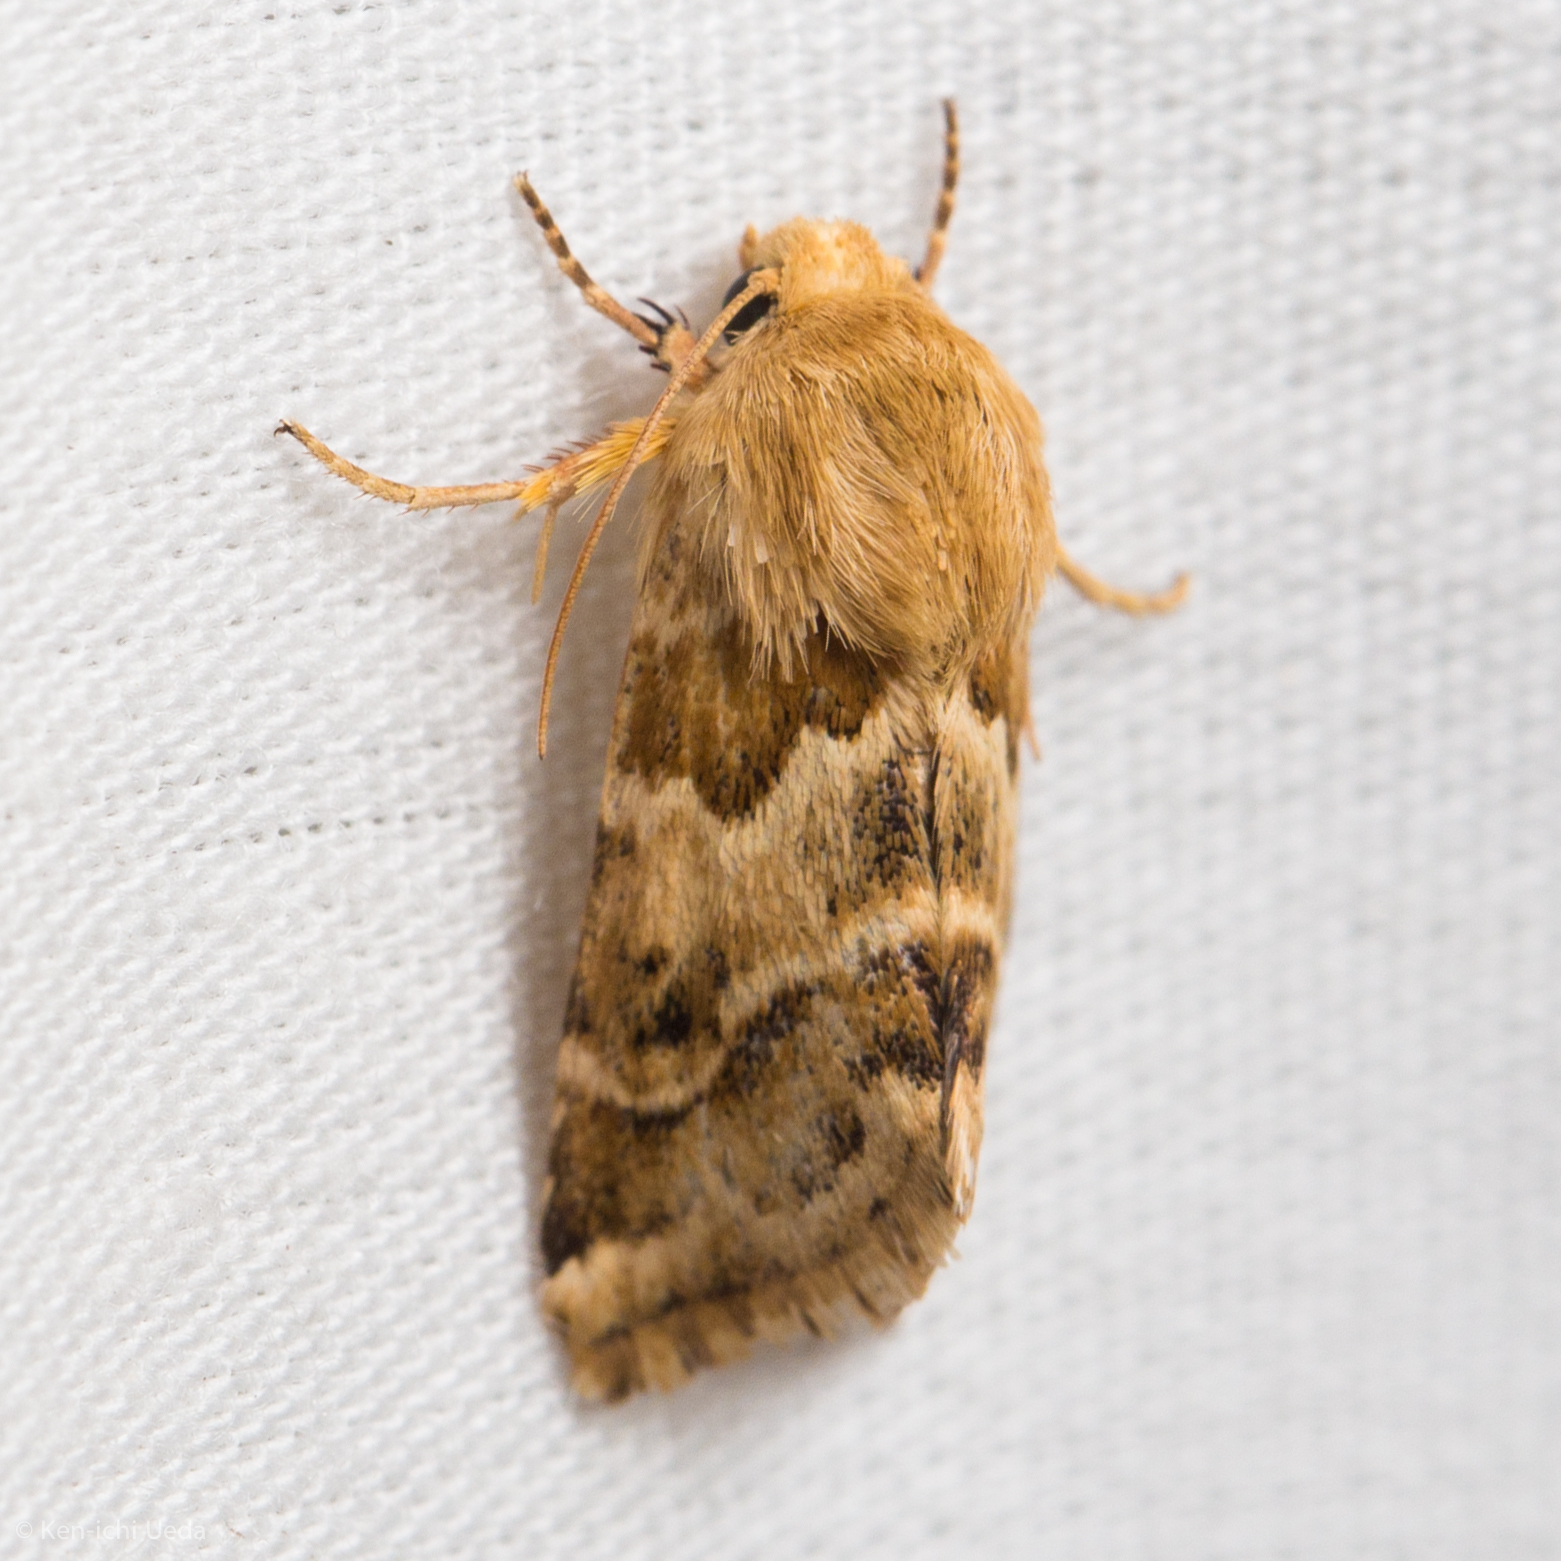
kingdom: Animalia
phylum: Arthropoda
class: Insecta
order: Lepidoptera
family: Noctuidae
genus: Schinia
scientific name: Schinia errans
